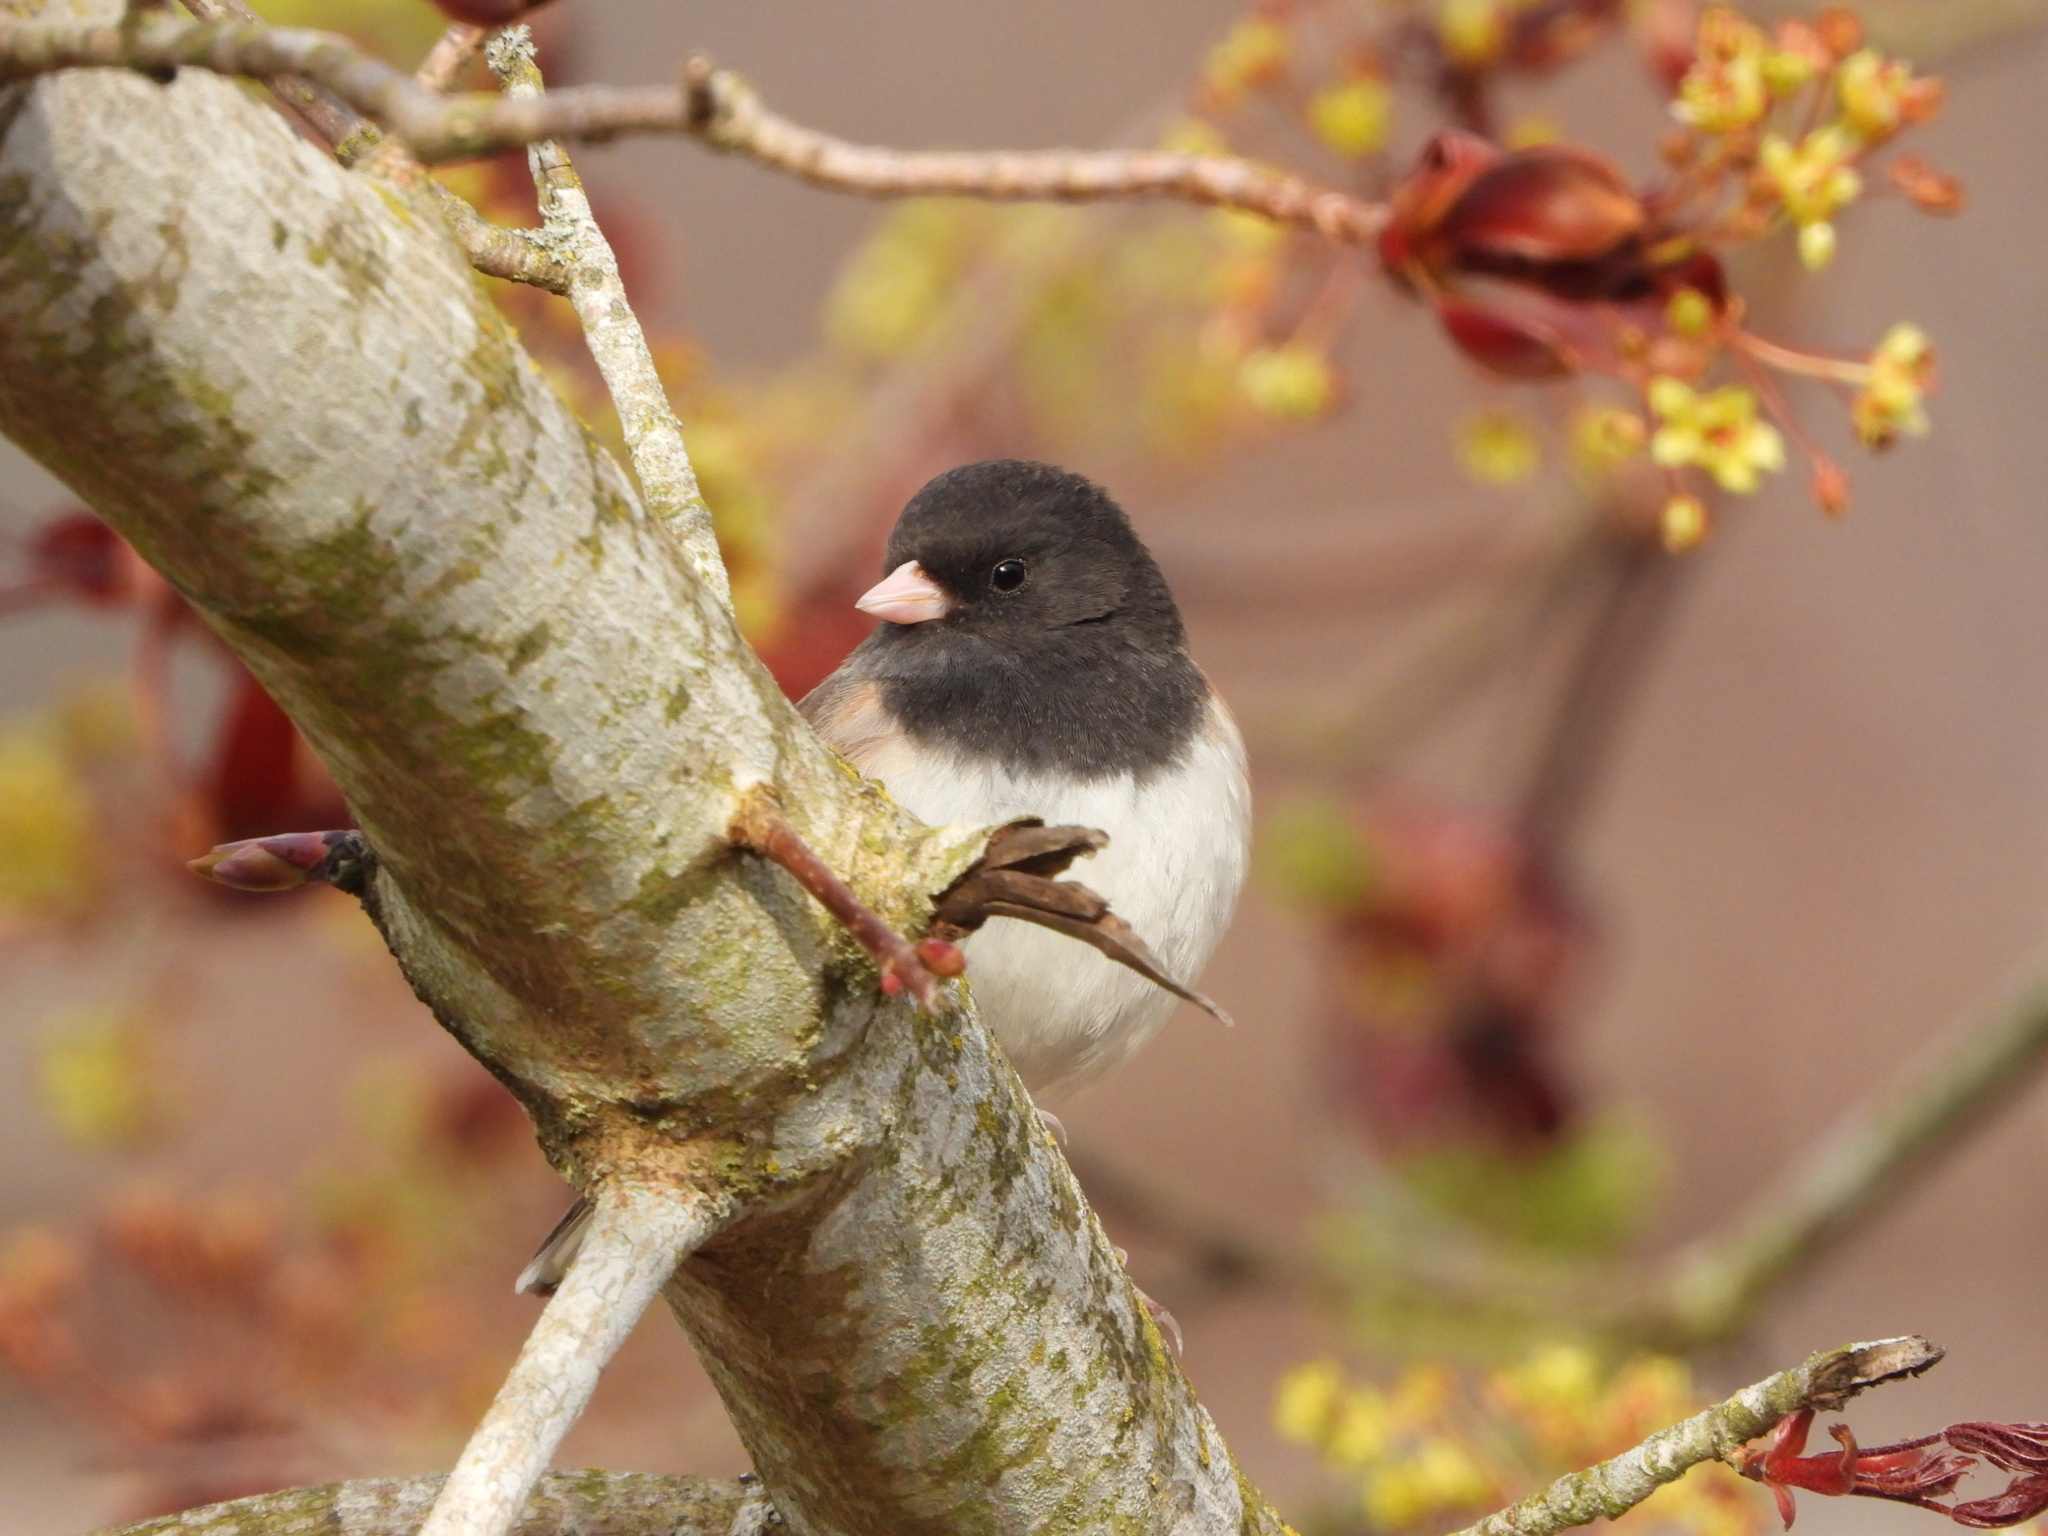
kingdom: Animalia
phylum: Chordata
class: Aves
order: Passeriformes
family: Passerellidae
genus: Junco
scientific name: Junco hyemalis
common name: Dark-eyed junco
